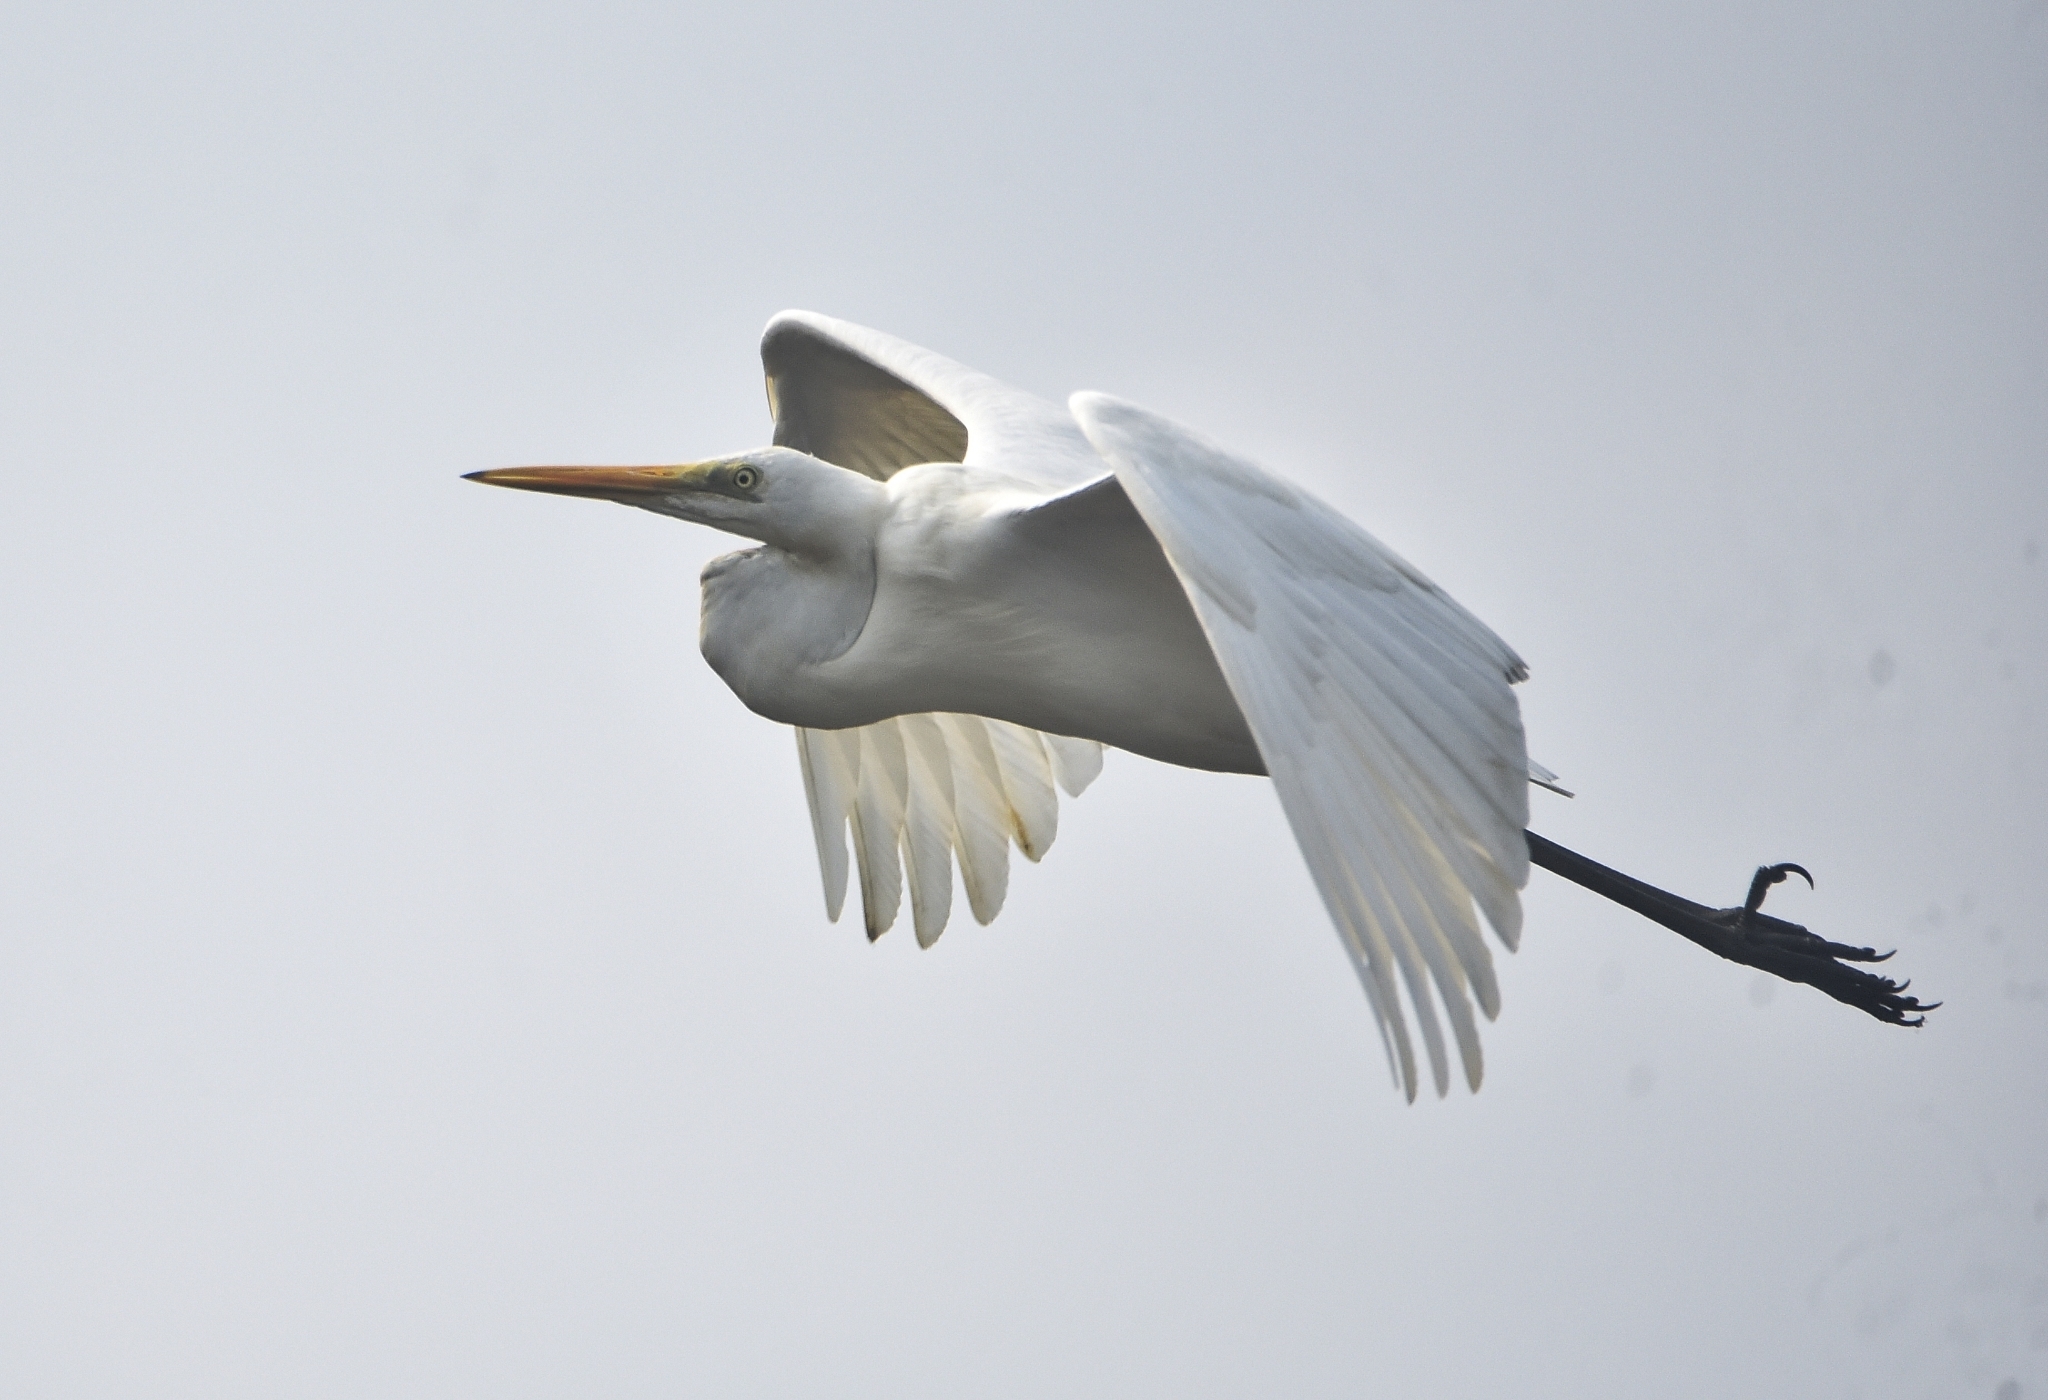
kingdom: Animalia
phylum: Chordata
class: Aves
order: Pelecaniformes
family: Ardeidae
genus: Ardea
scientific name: Ardea alba
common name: Great egret
